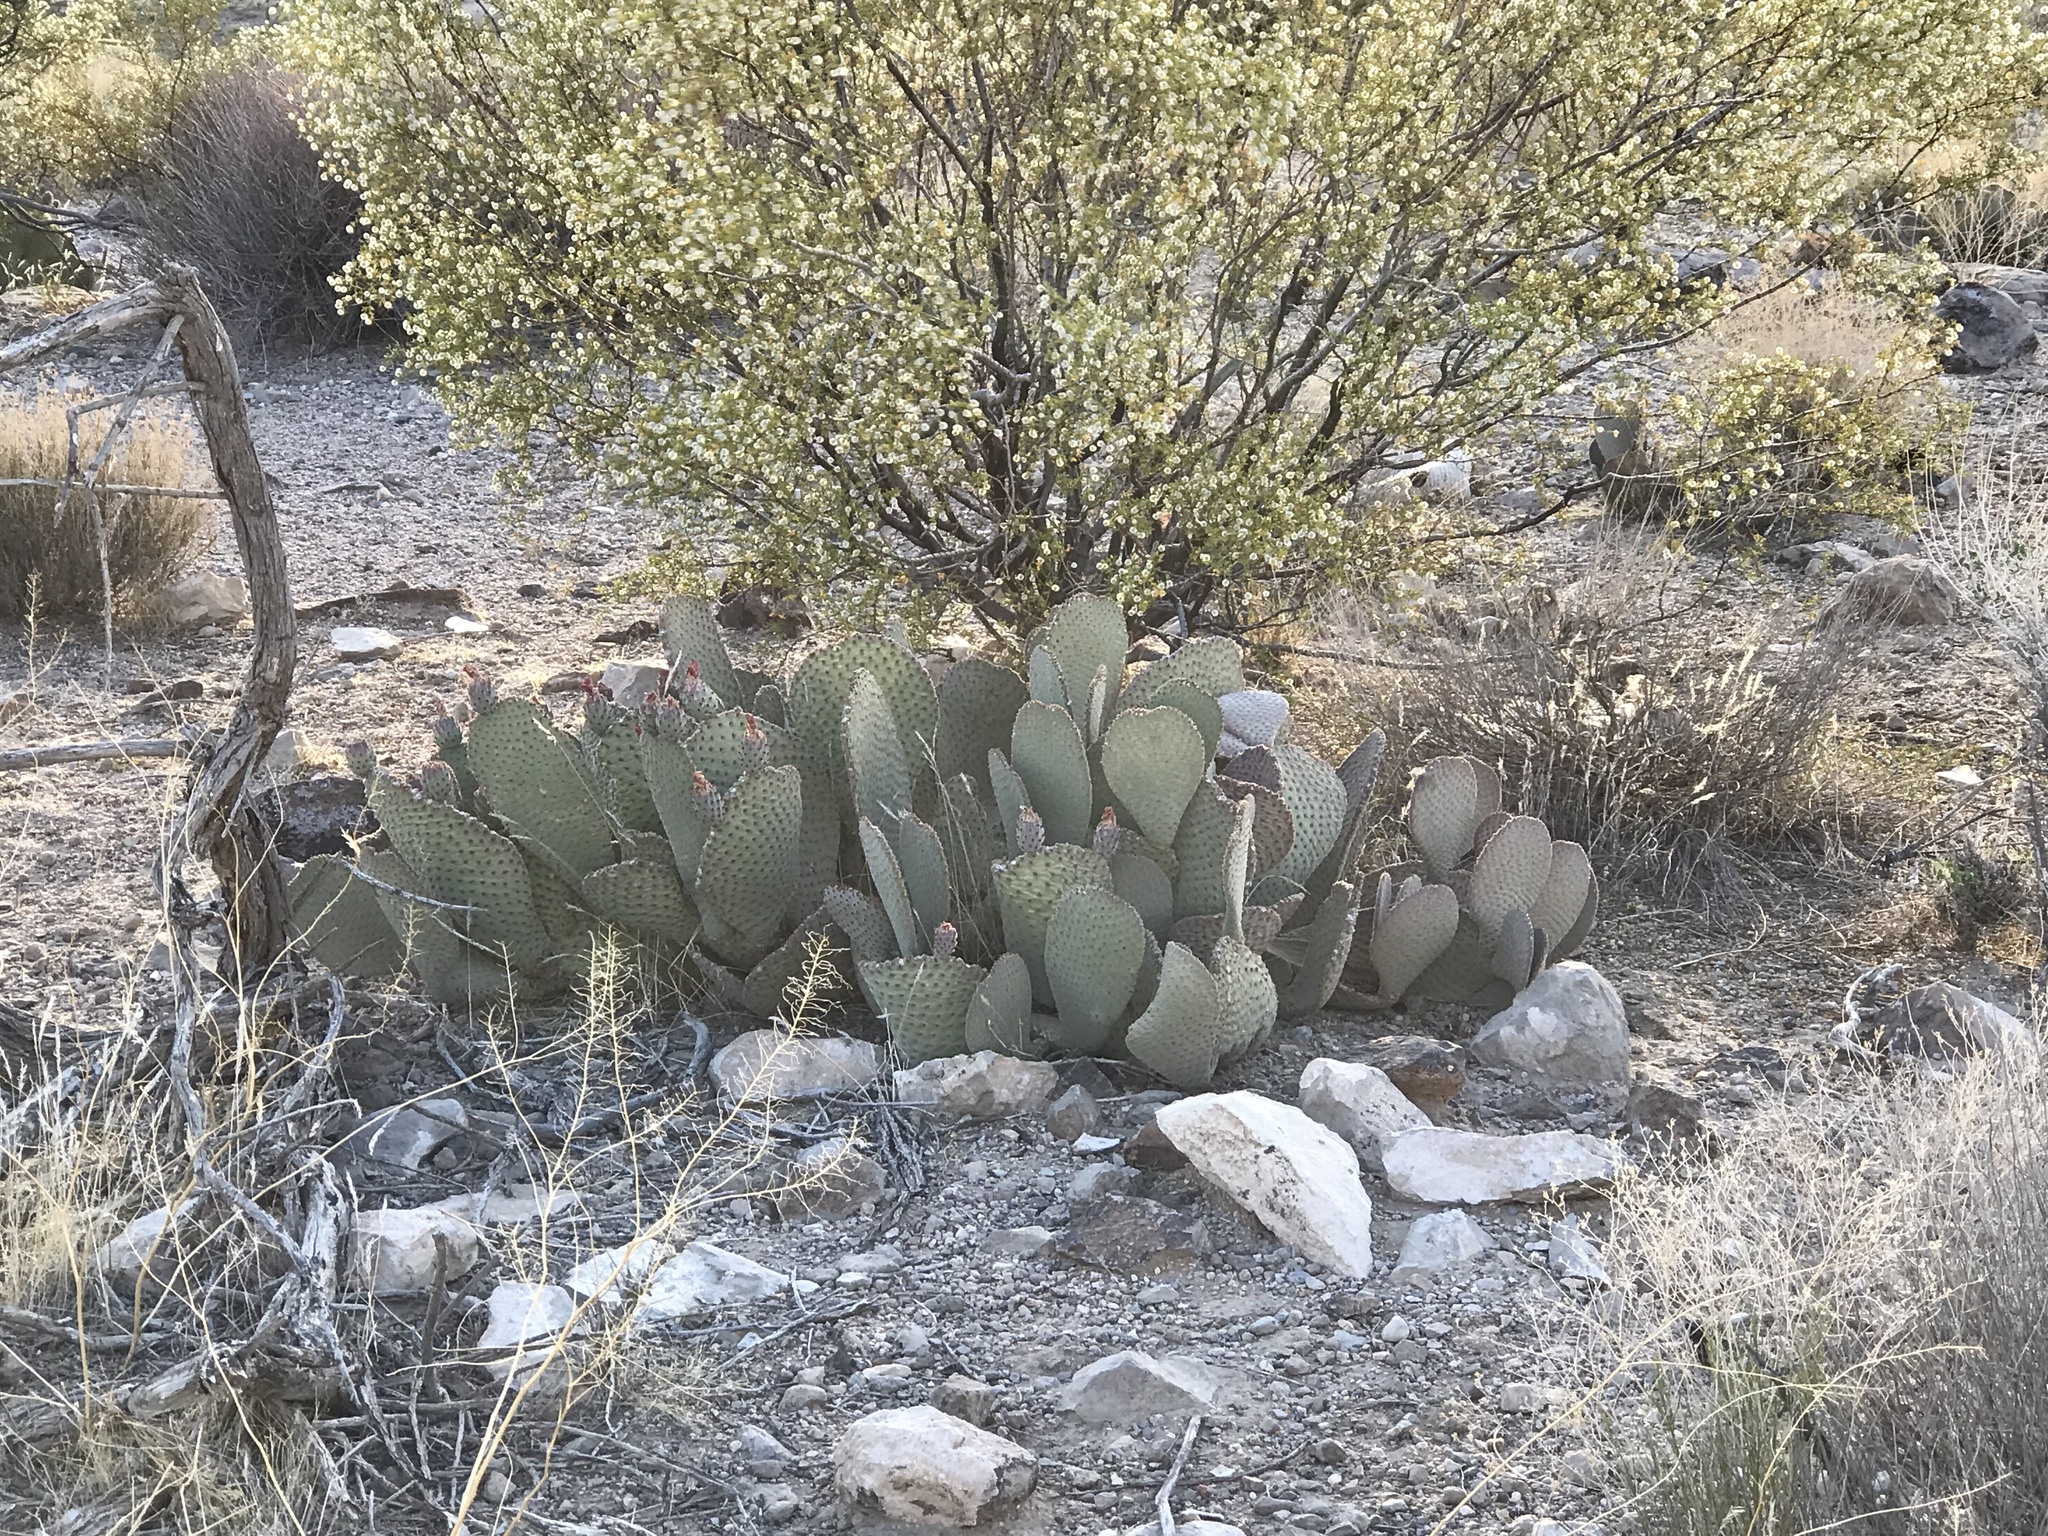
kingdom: Plantae
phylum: Tracheophyta
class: Magnoliopsida
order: Caryophyllales
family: Cactaceae
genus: Opuntia
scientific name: Opuntia basilaris
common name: Beavertail prickly-pear
